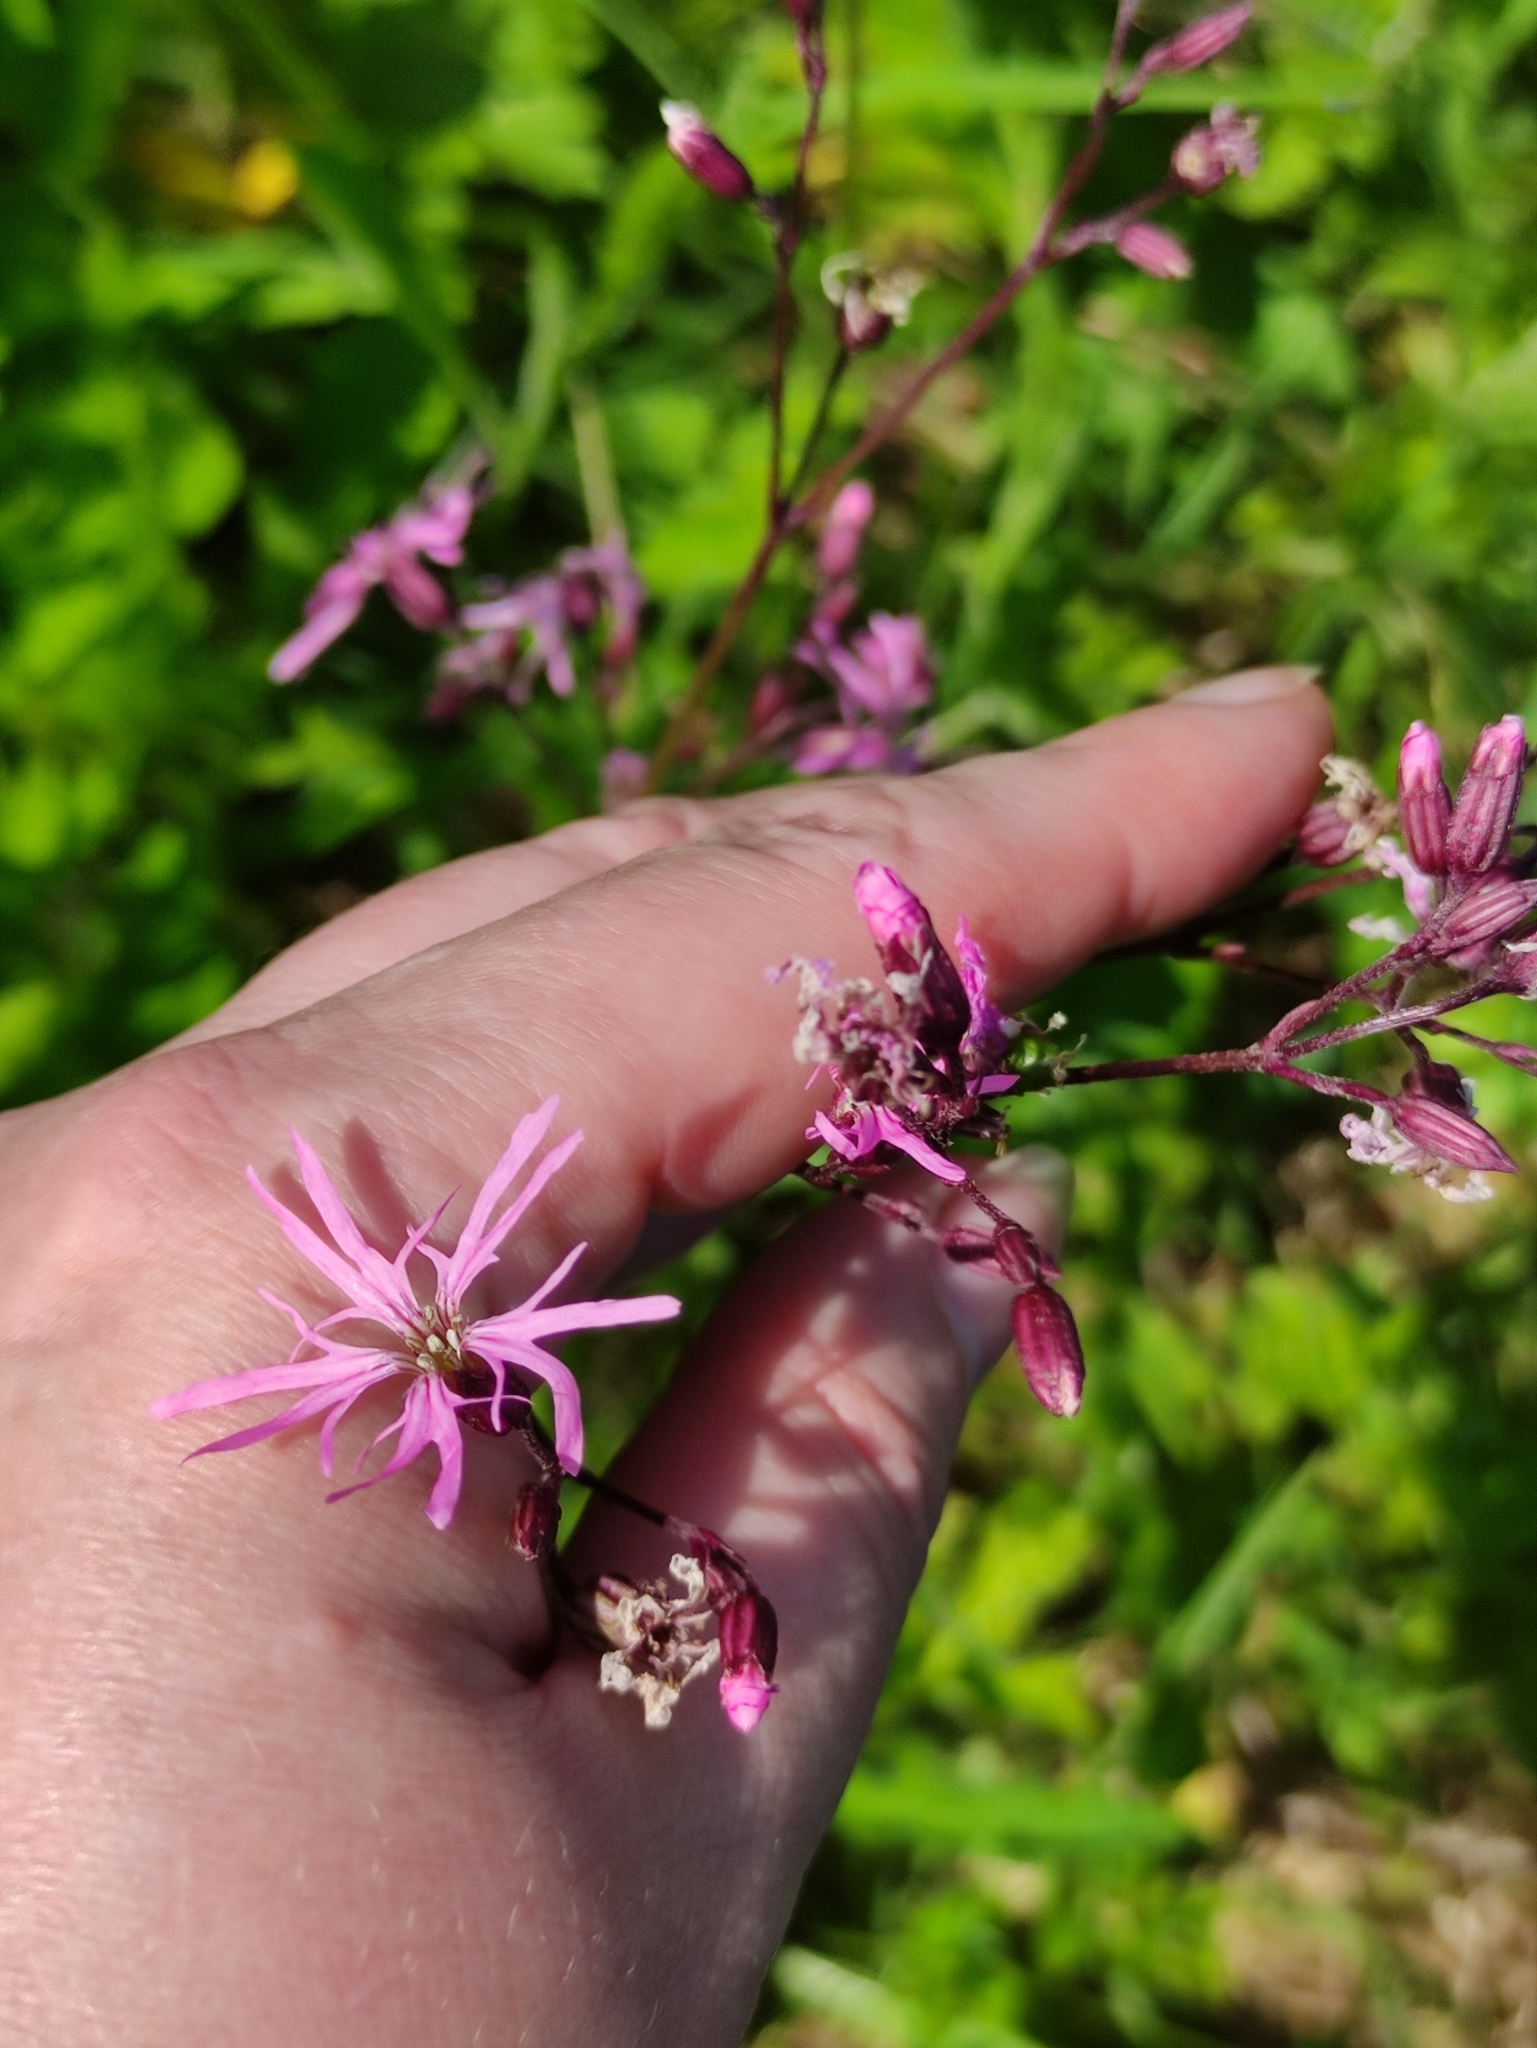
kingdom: Plantae
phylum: Tracheophyta
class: Magnoliopsida
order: Caryophyllales
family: Caryophyllaceae
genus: Silene
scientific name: Silene flos-cuculi
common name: Ragged-robin
